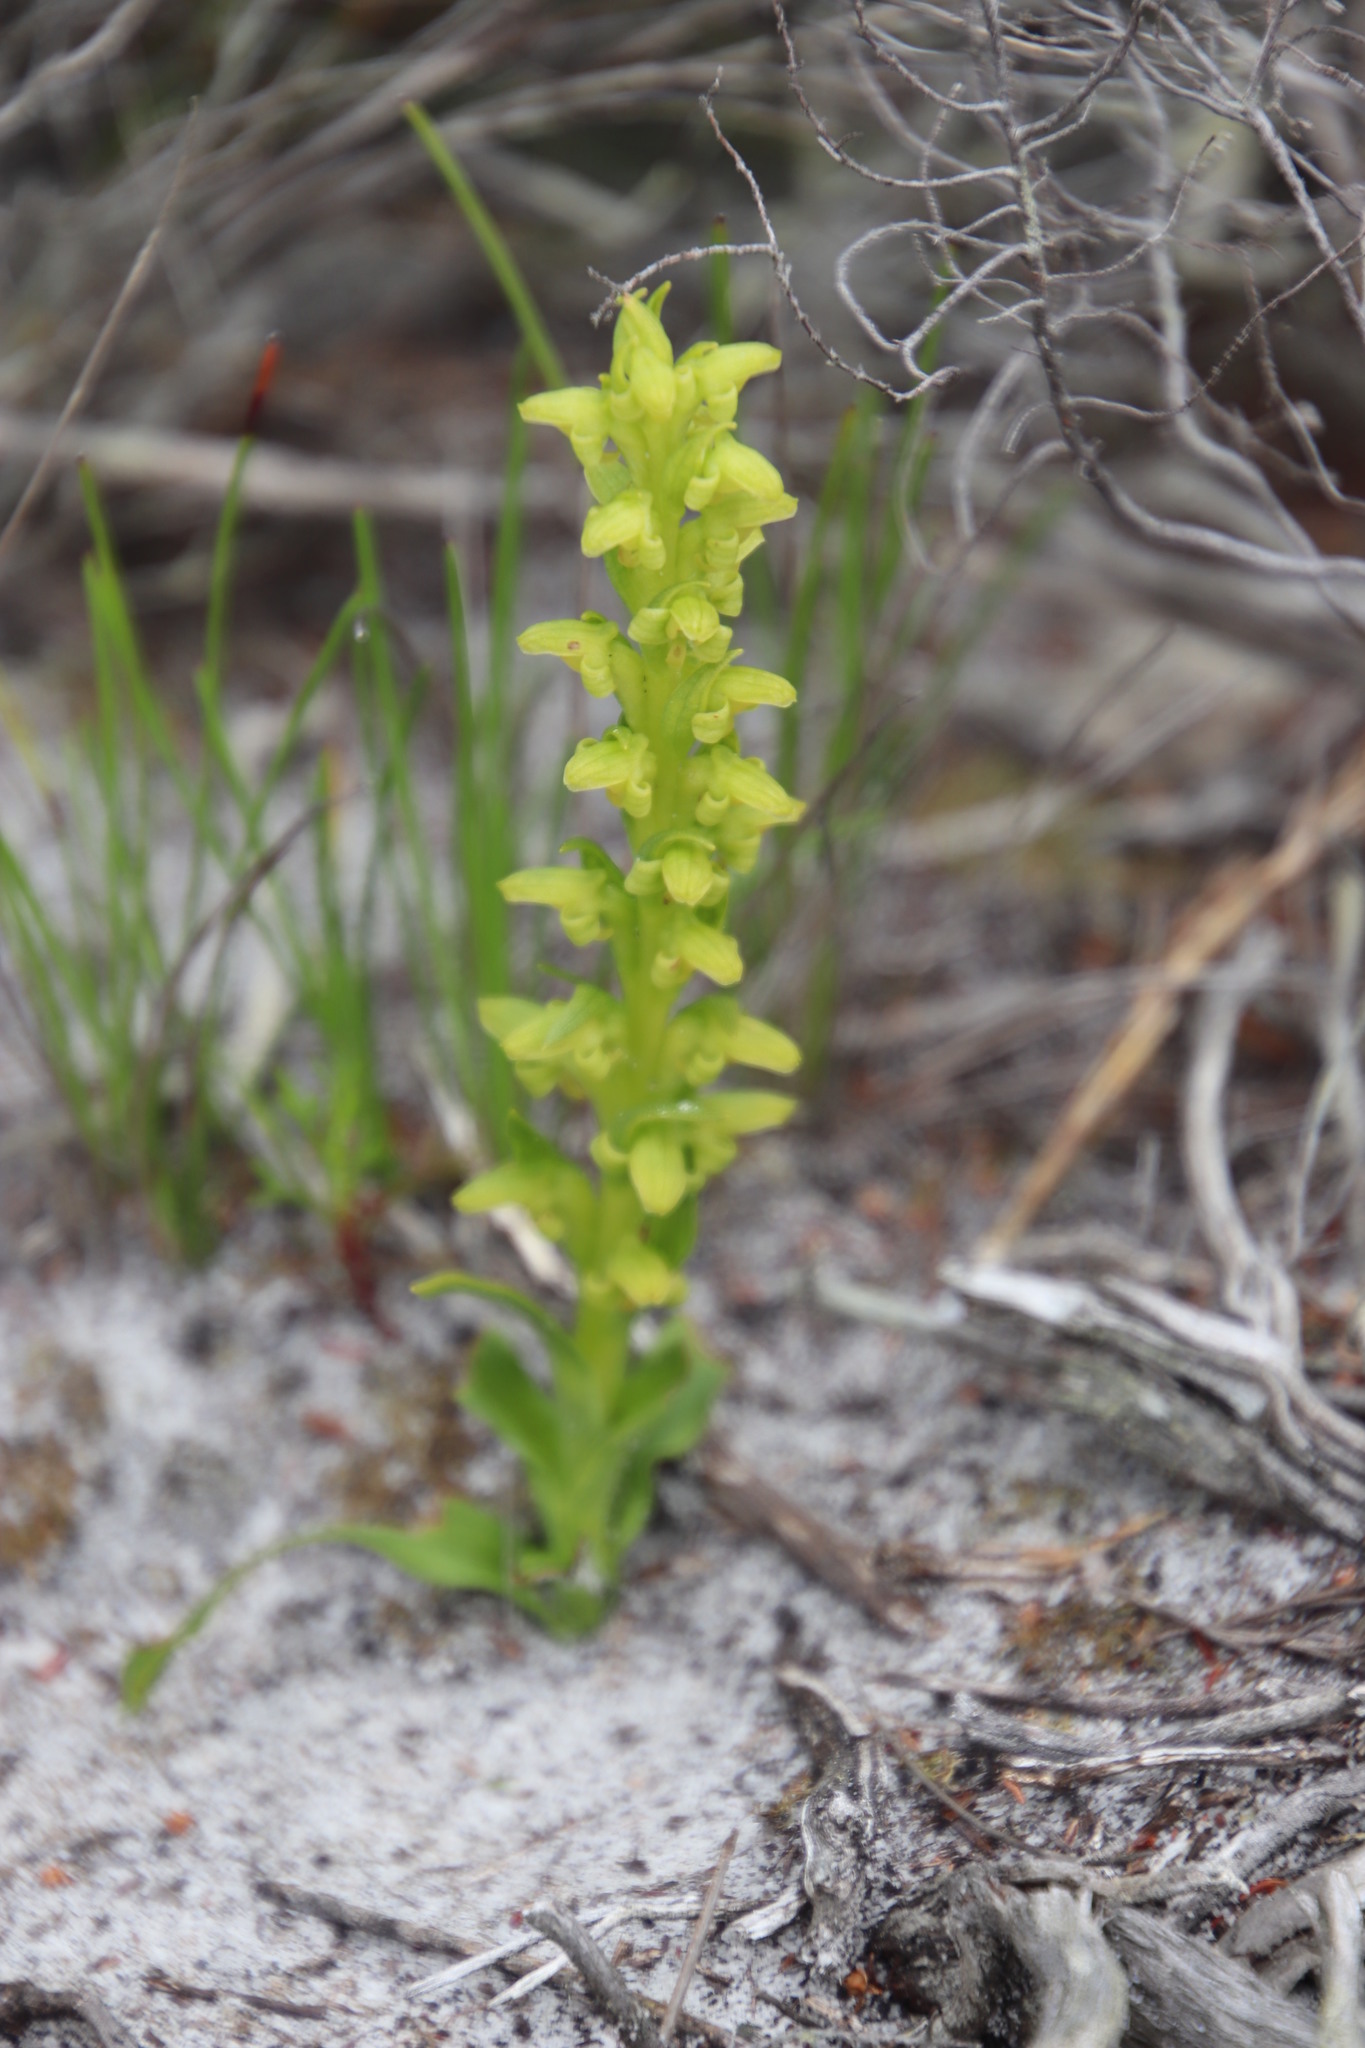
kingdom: Plantae
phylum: Tracheophyta
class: Liliopsida
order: Asparagales
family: Orchidaceae
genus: Disa
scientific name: Disa cylindrica
